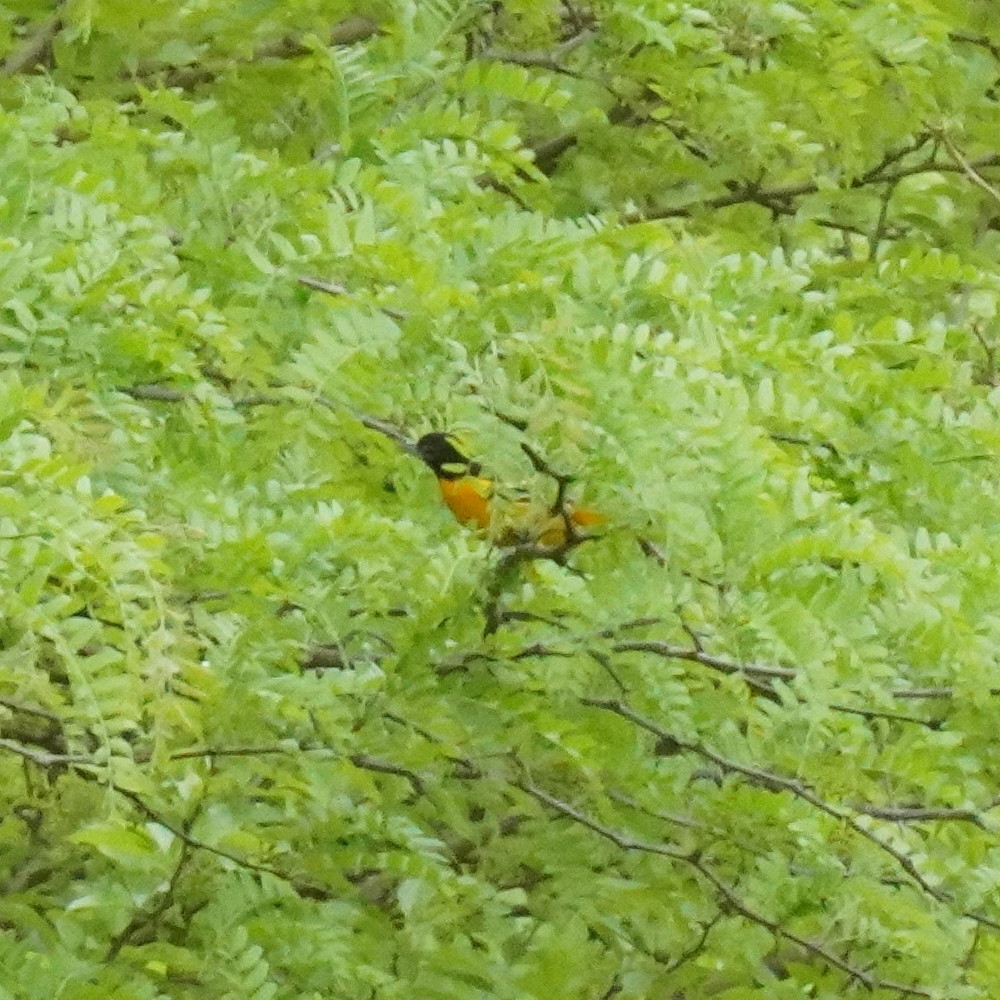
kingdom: Animalia
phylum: Chordata
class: Aves
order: Passeriformes
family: Icteridae
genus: Icterus
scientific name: Icterus galbula
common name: Baltimore oriole
